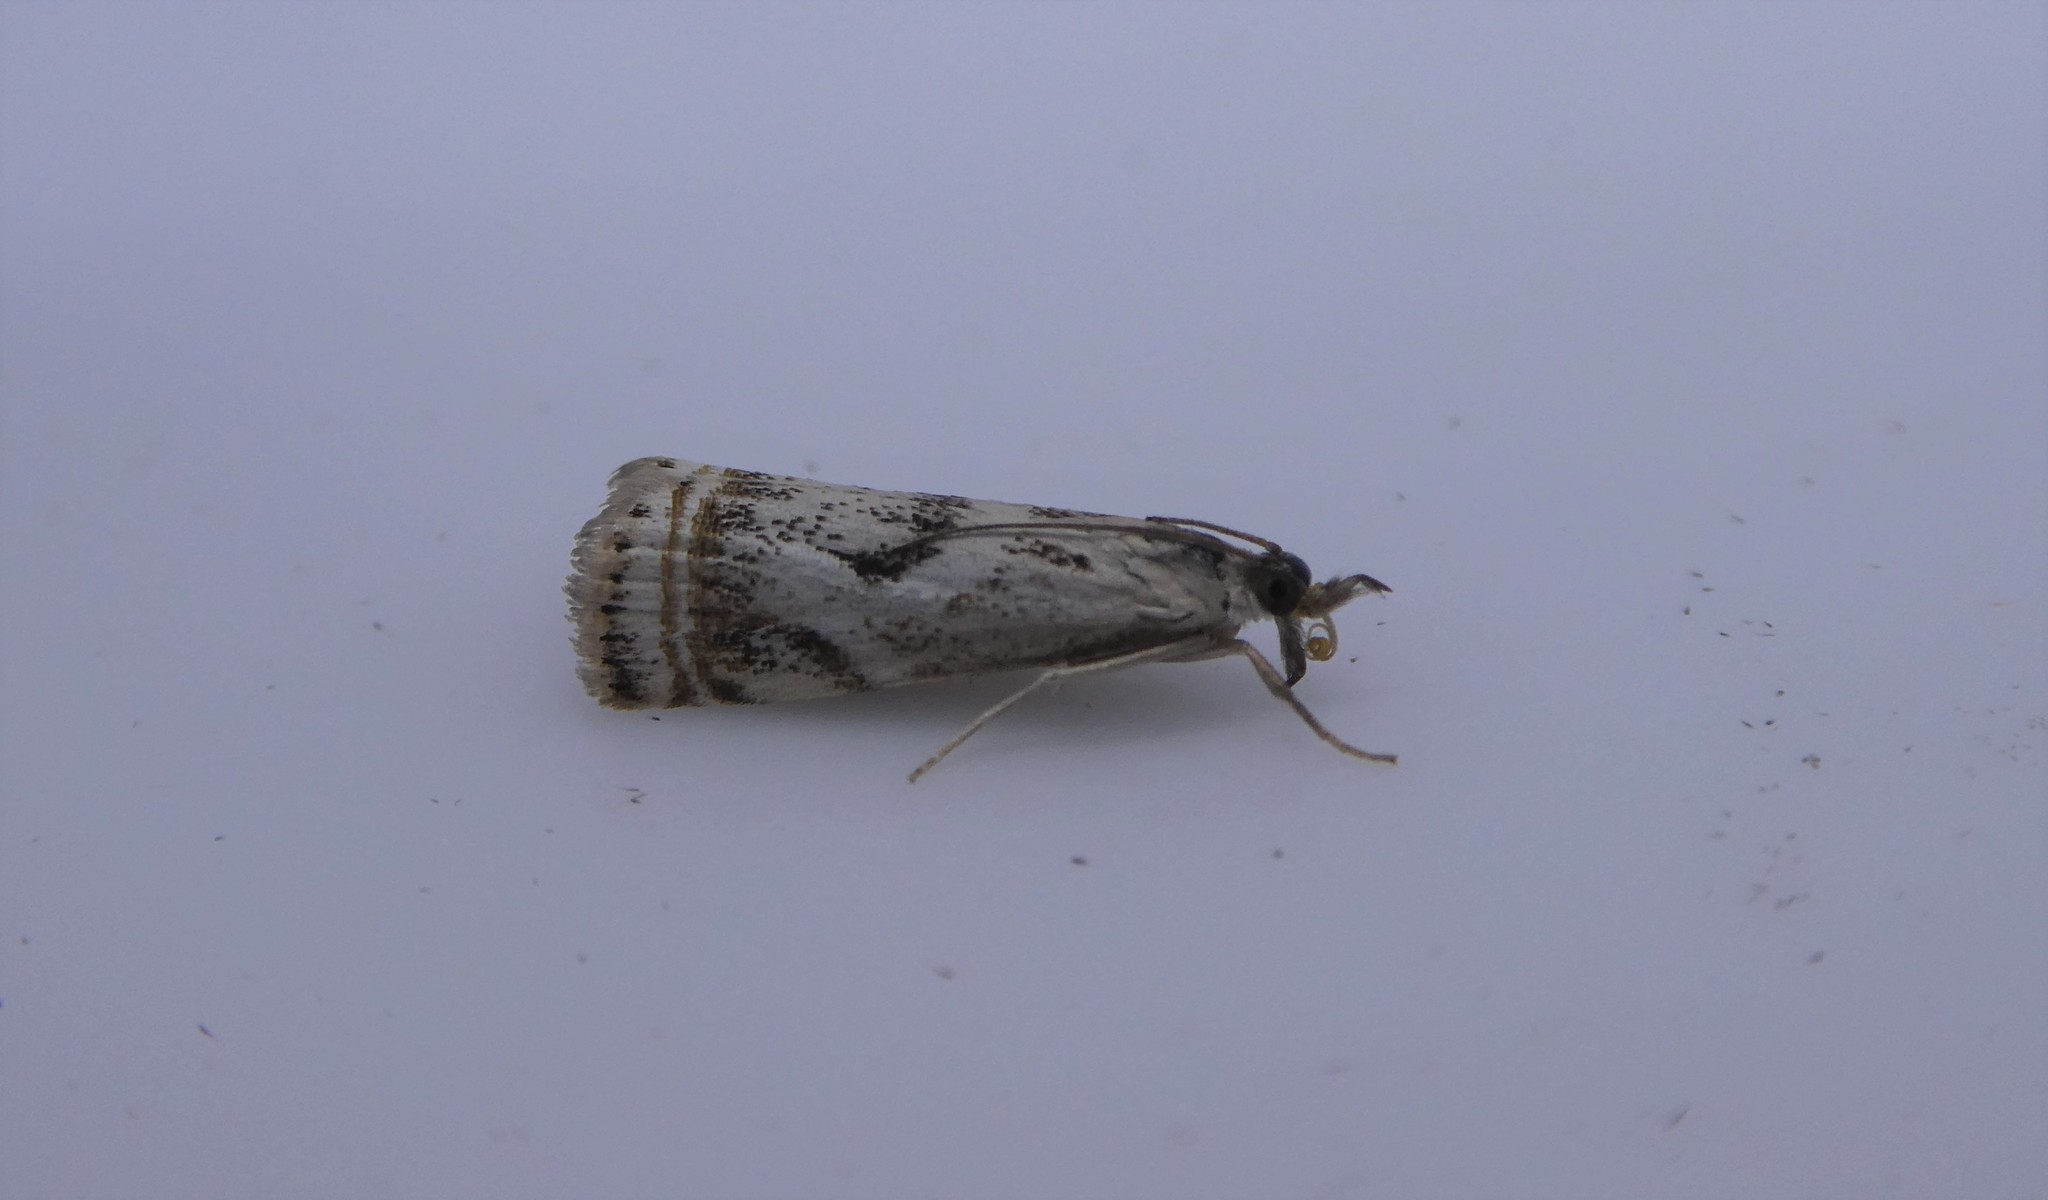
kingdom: Animalia
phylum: Arthropoda
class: Insecta
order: Lepidoptera
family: Crambidae
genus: Microcrambus
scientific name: Microcrambus elegans
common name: Elegant grass-veneer
